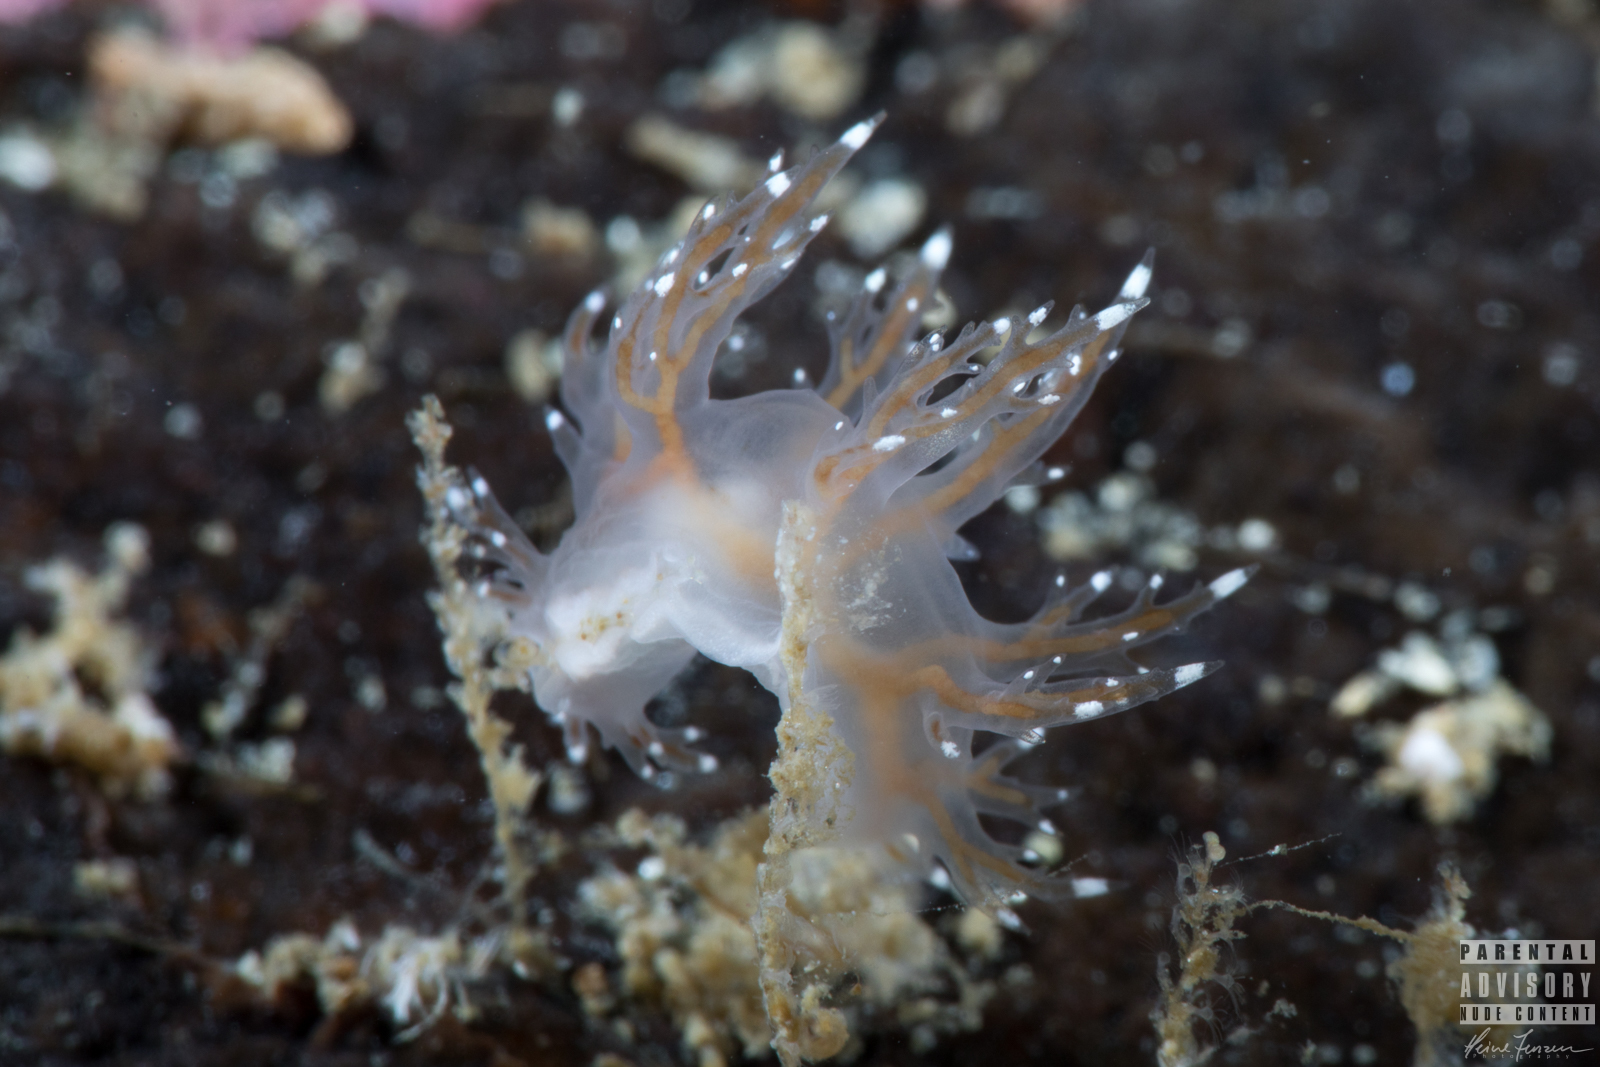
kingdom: Animalia
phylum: Mollusca
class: Gastropoda
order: Nudibranchia
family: Dendronotidae
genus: Dendronotus
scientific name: Dendronotus keatleyae
